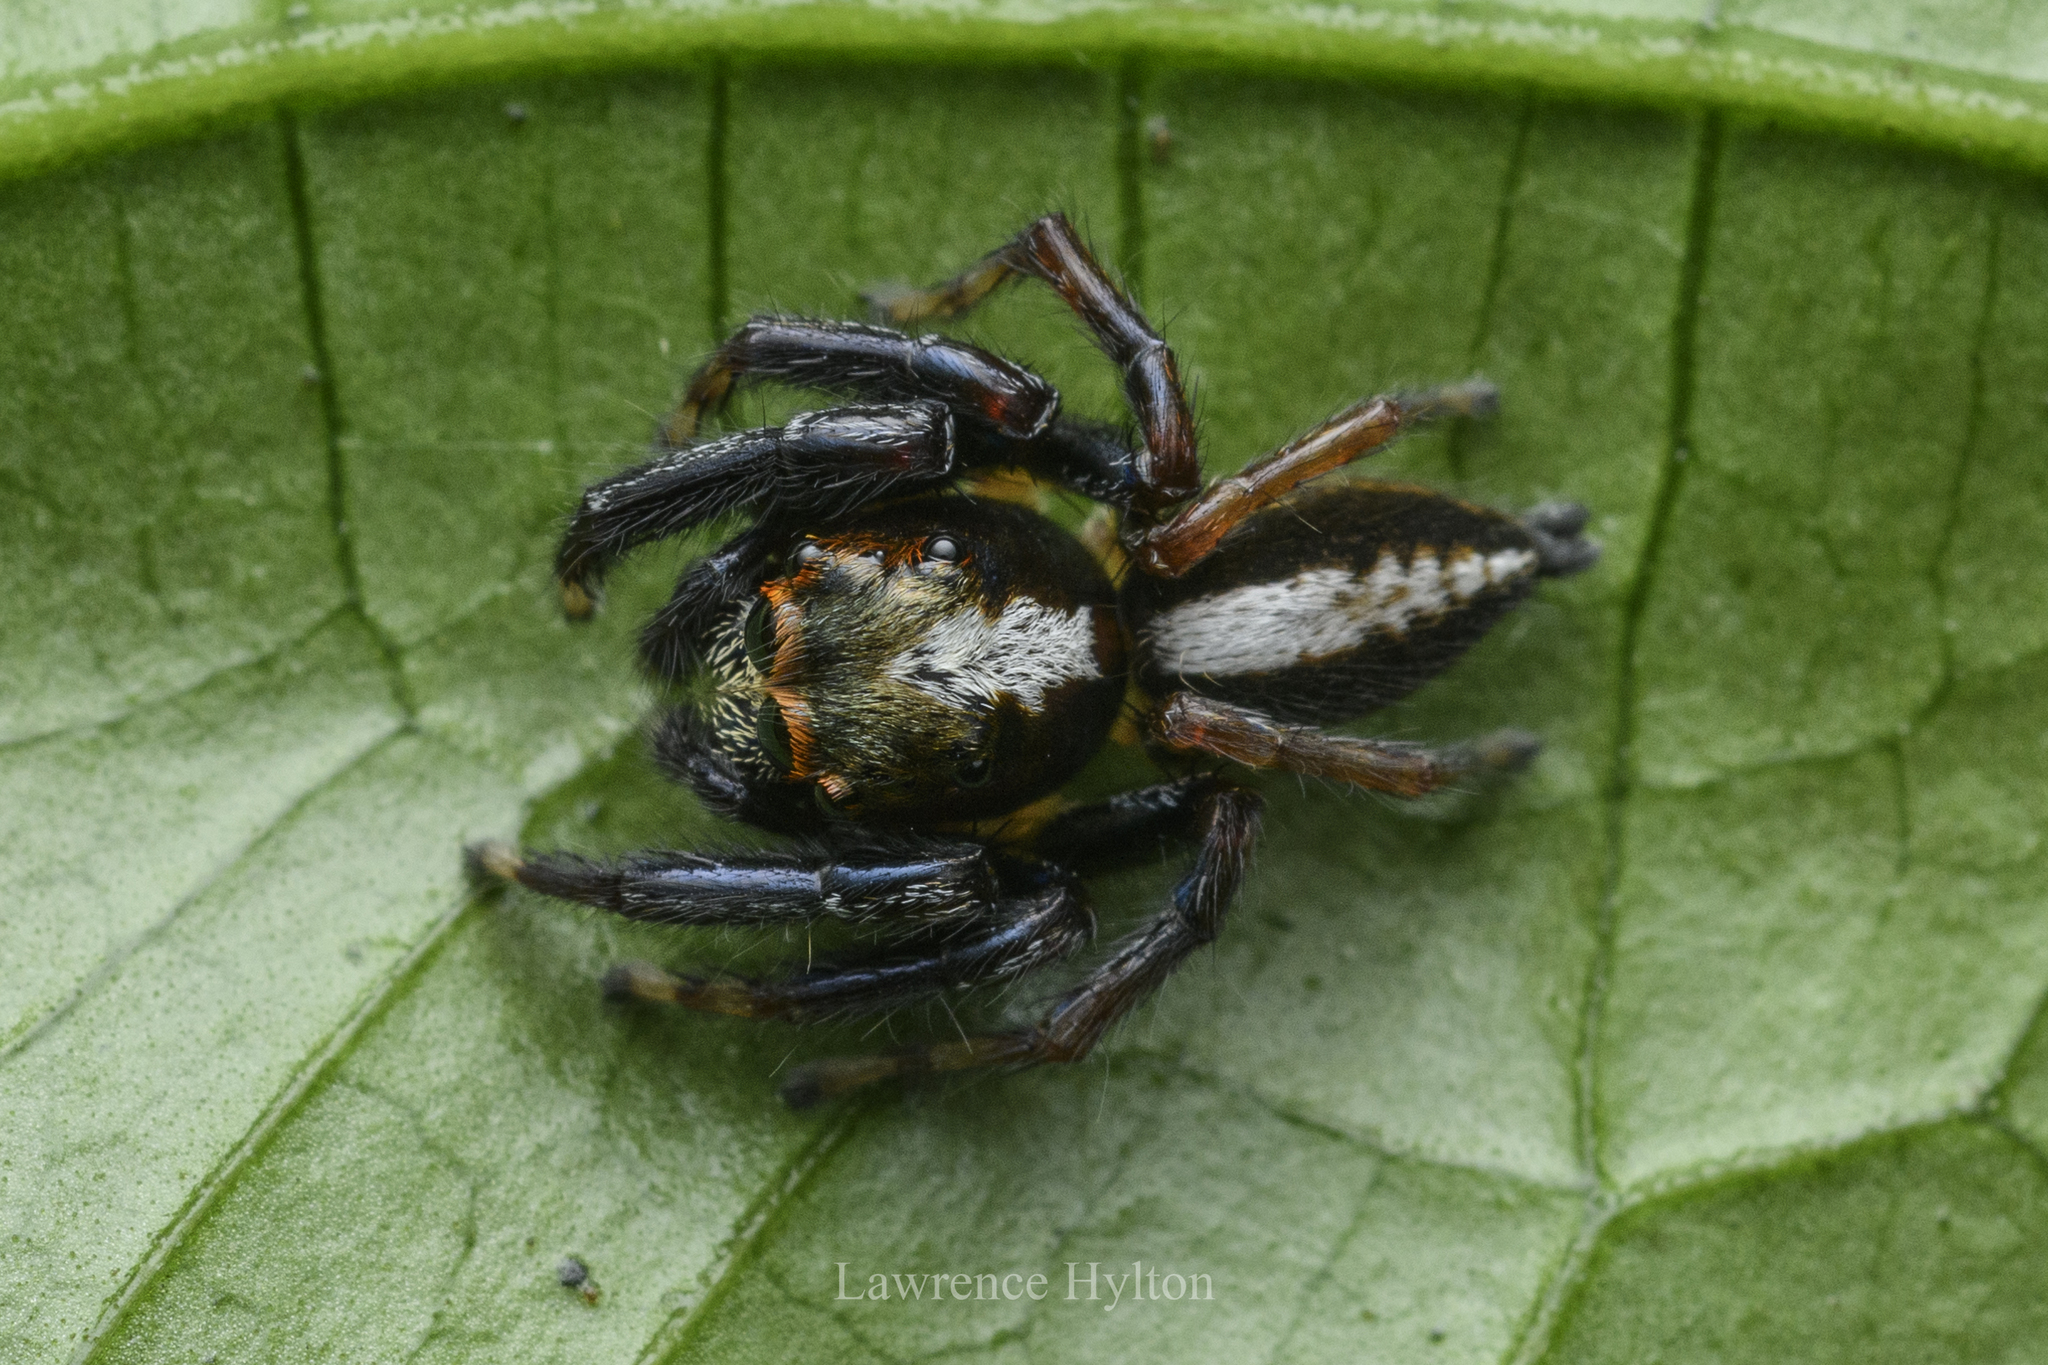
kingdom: Animalia
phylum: Arthropoda
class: Arachnida
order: Araneae
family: Salticidae
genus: Orientattus
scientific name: Orientattus hongkong
